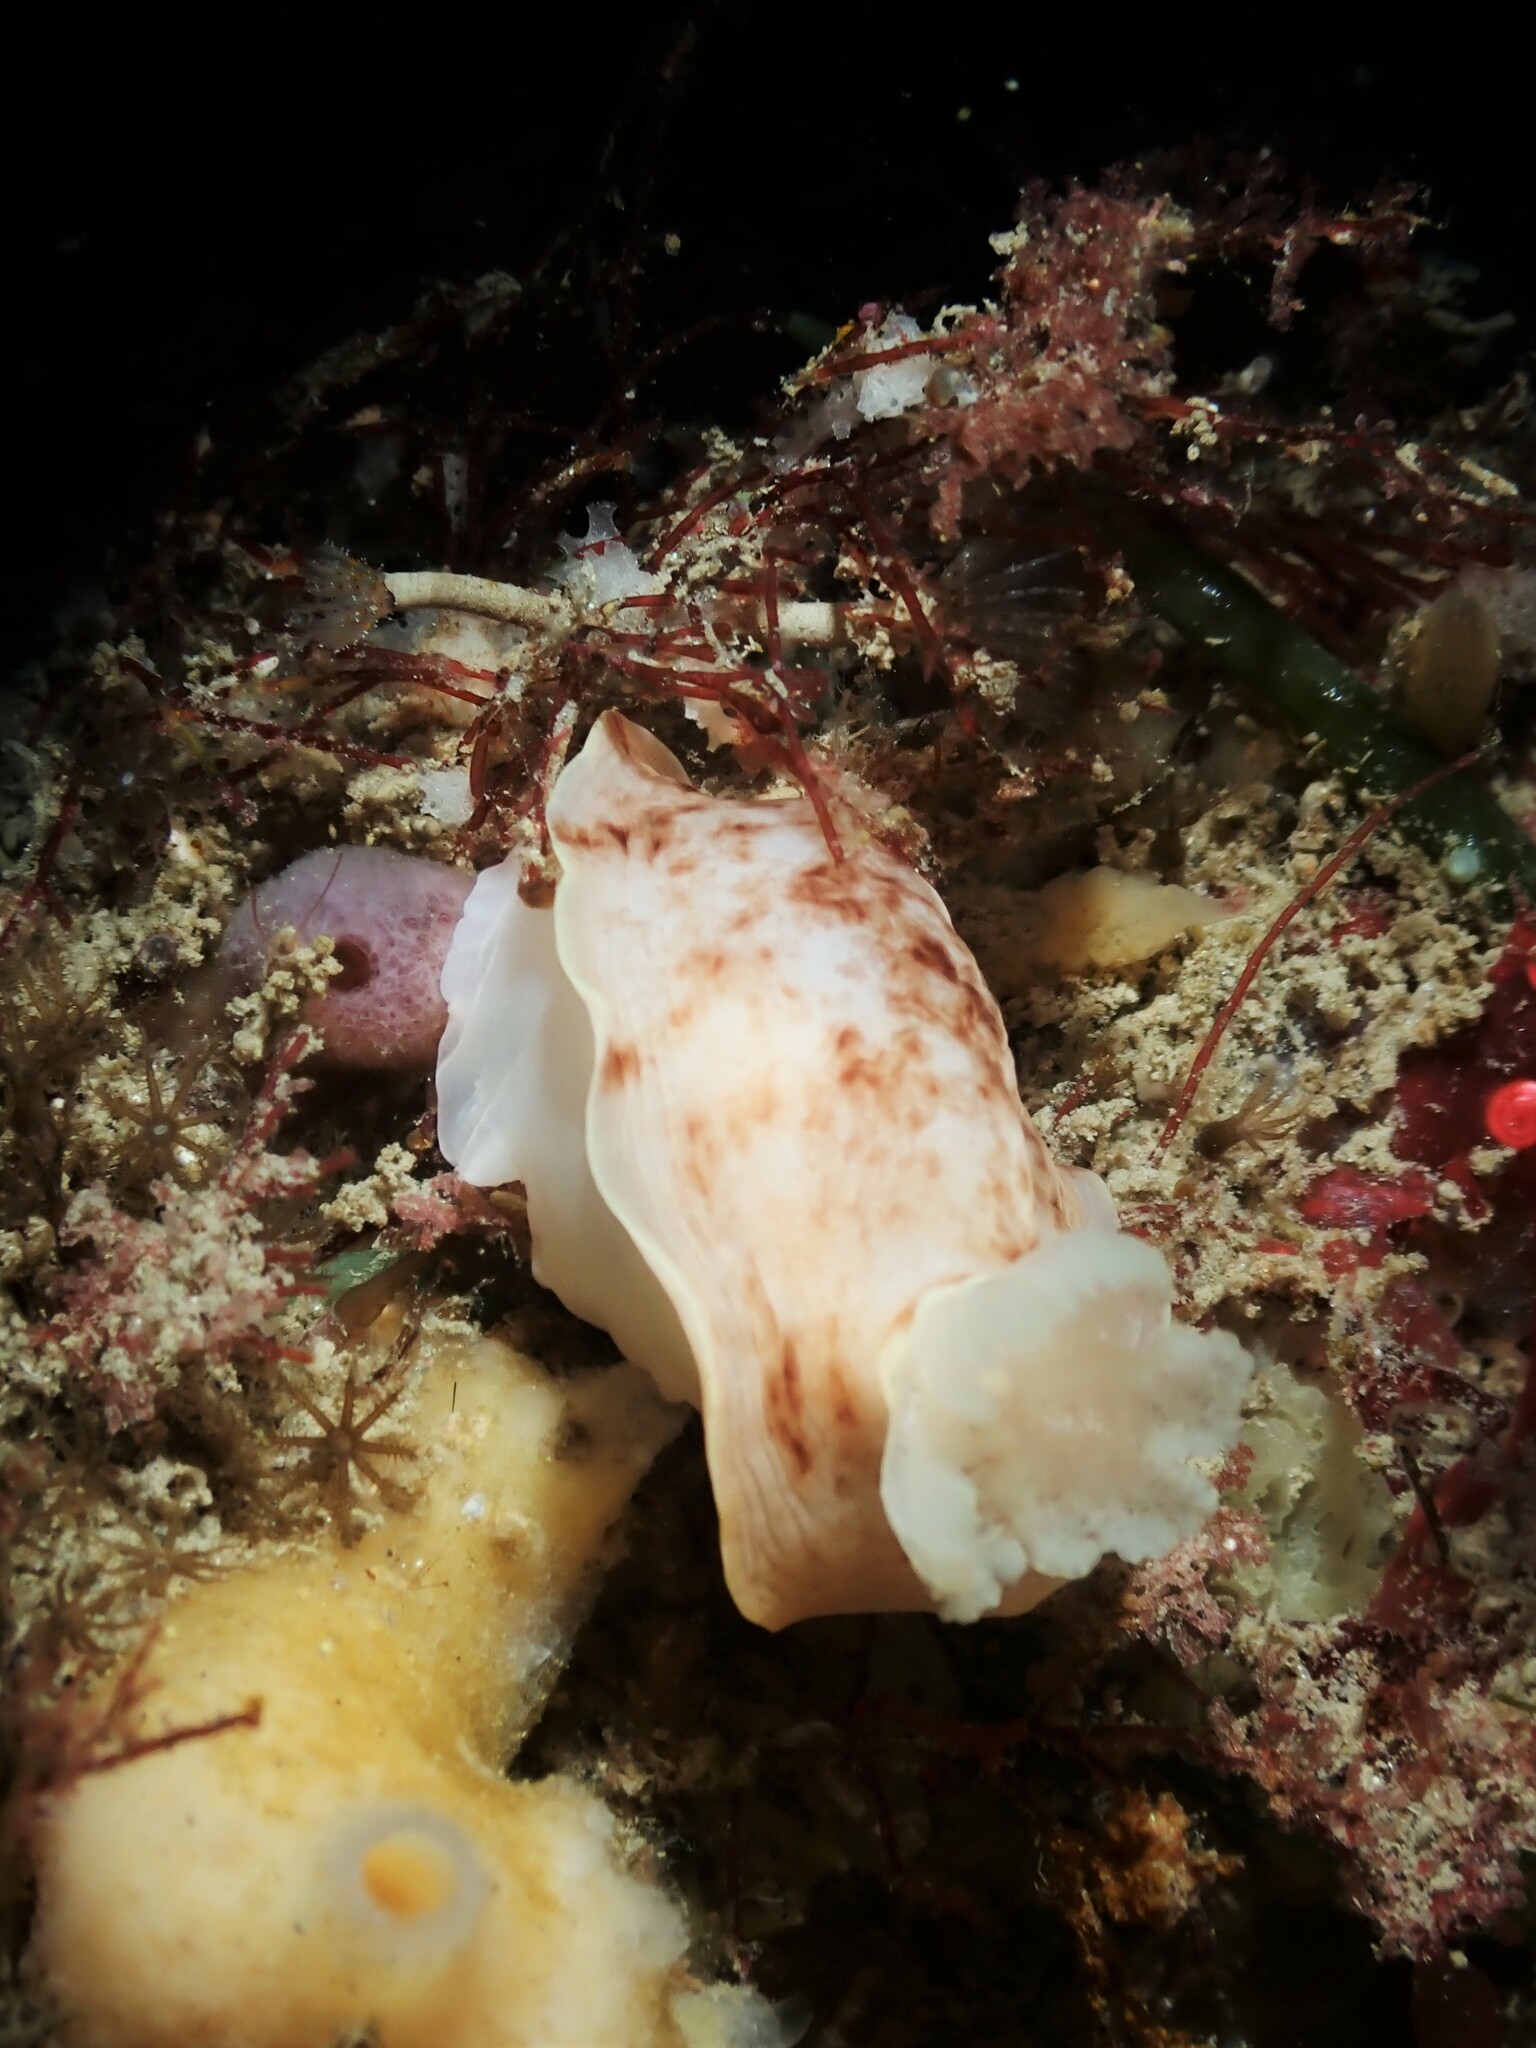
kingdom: Animalia
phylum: Mollusca
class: Gastropoda
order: Nudibranchia
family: Dorididae
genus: Aphelodoris
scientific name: Aphelodoris luctuosa
